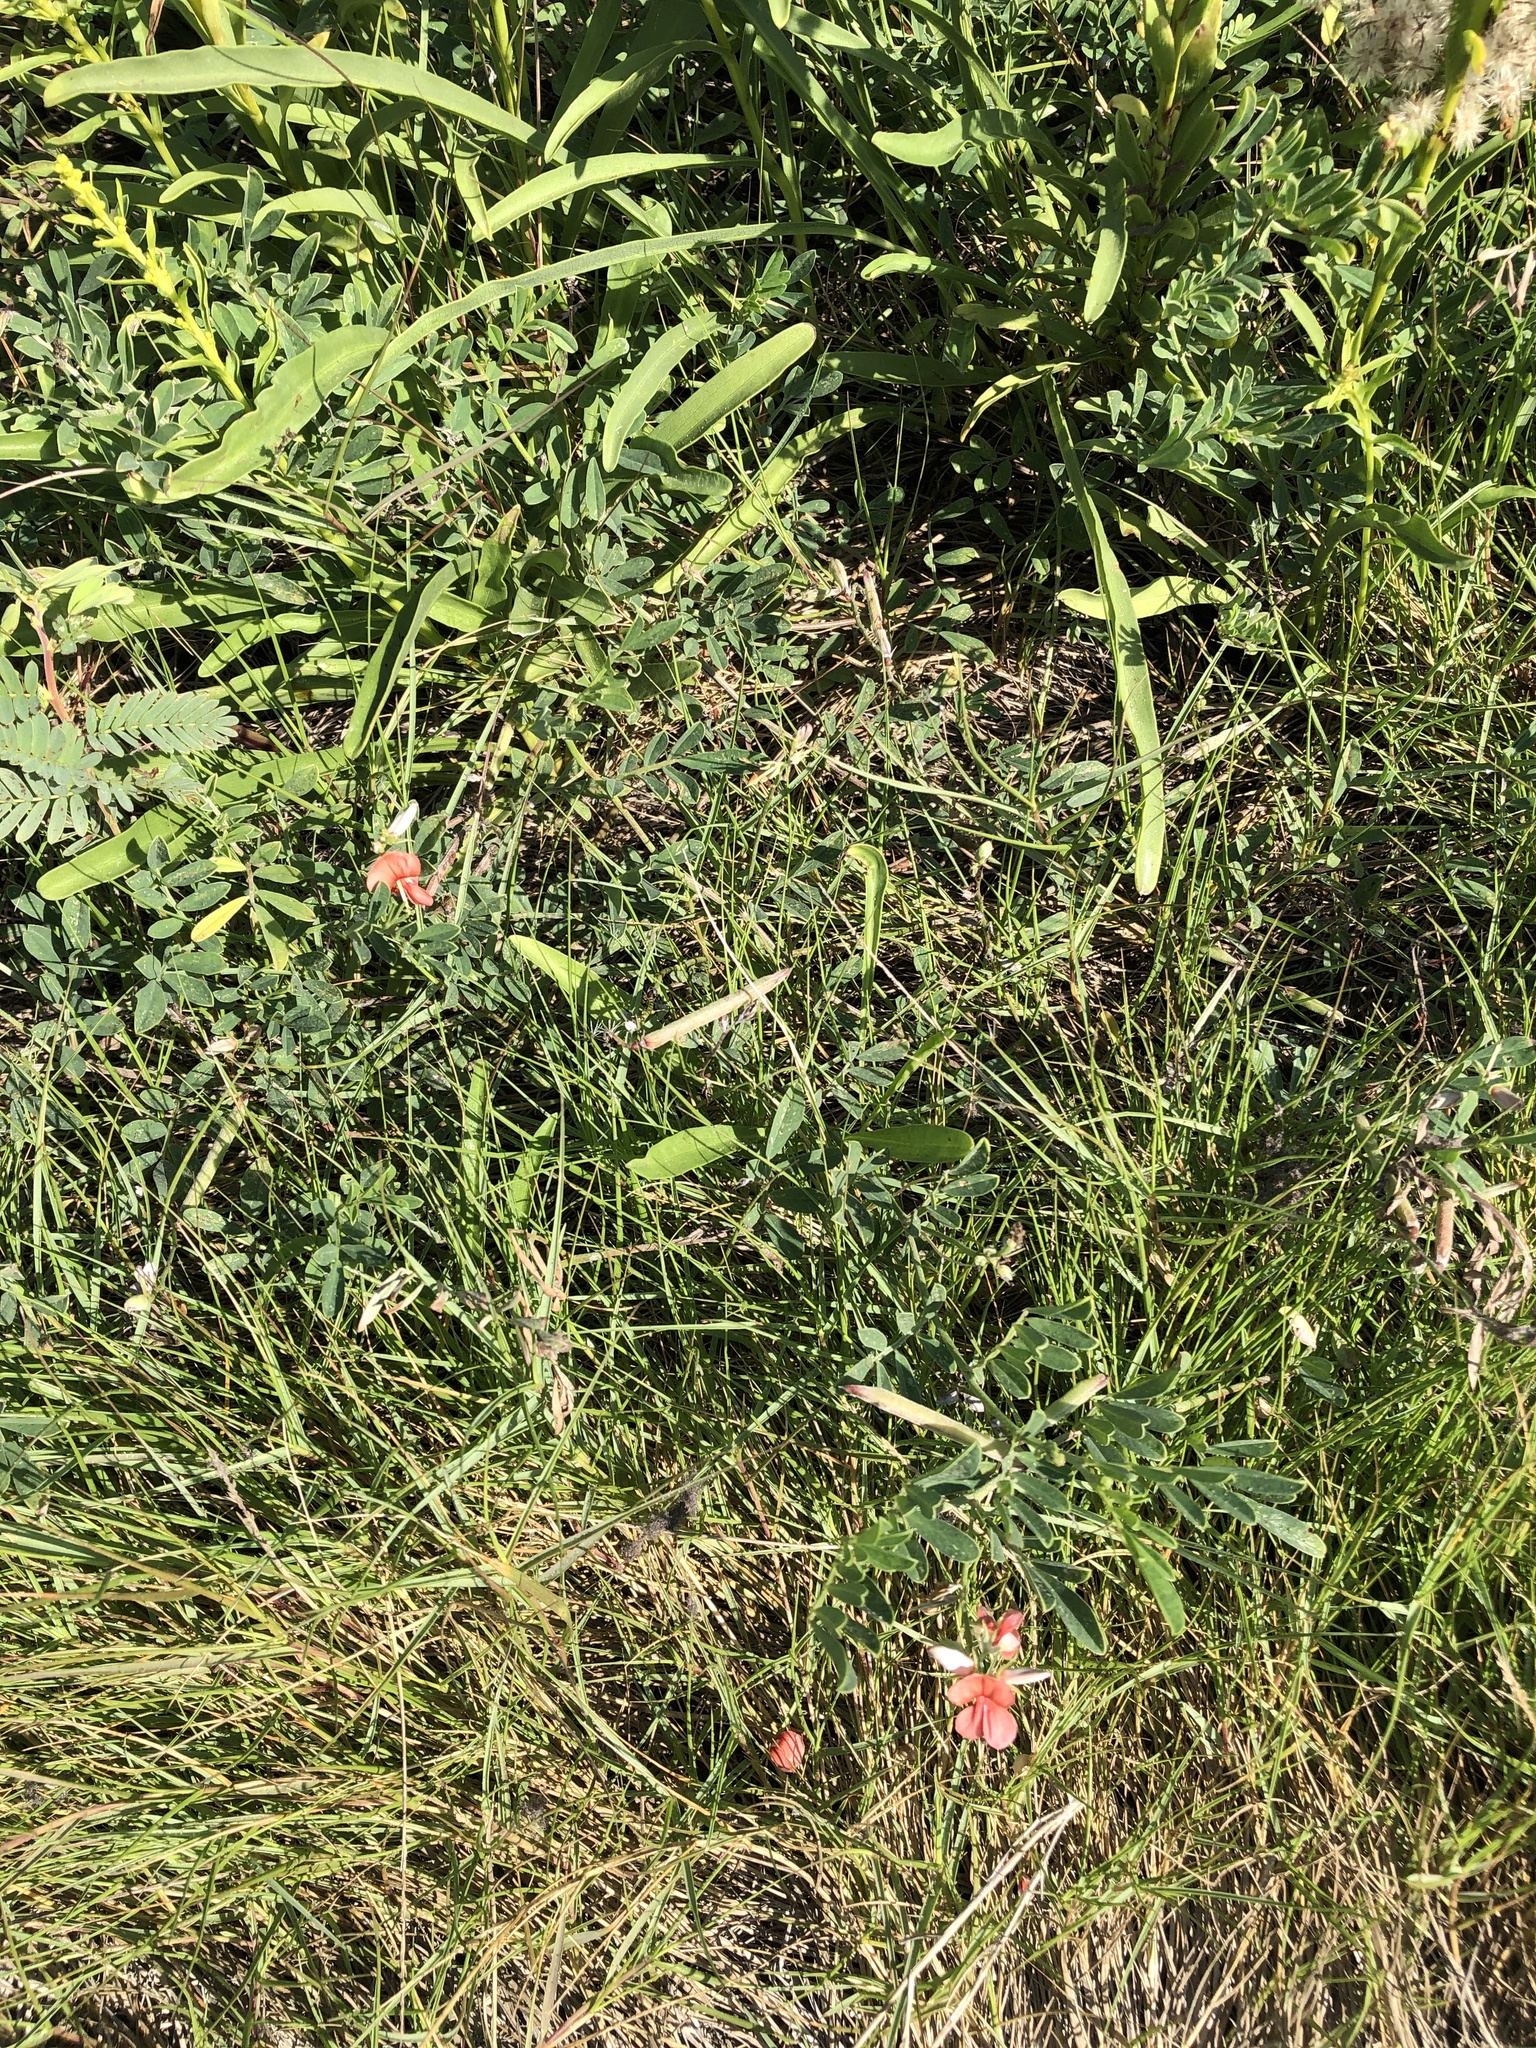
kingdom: Plantae
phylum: Tracheophyta
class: Magnoliopsida
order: Fabales
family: Fabaceae
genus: Indigofera
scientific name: Indigofera miniata
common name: Coast indigo
